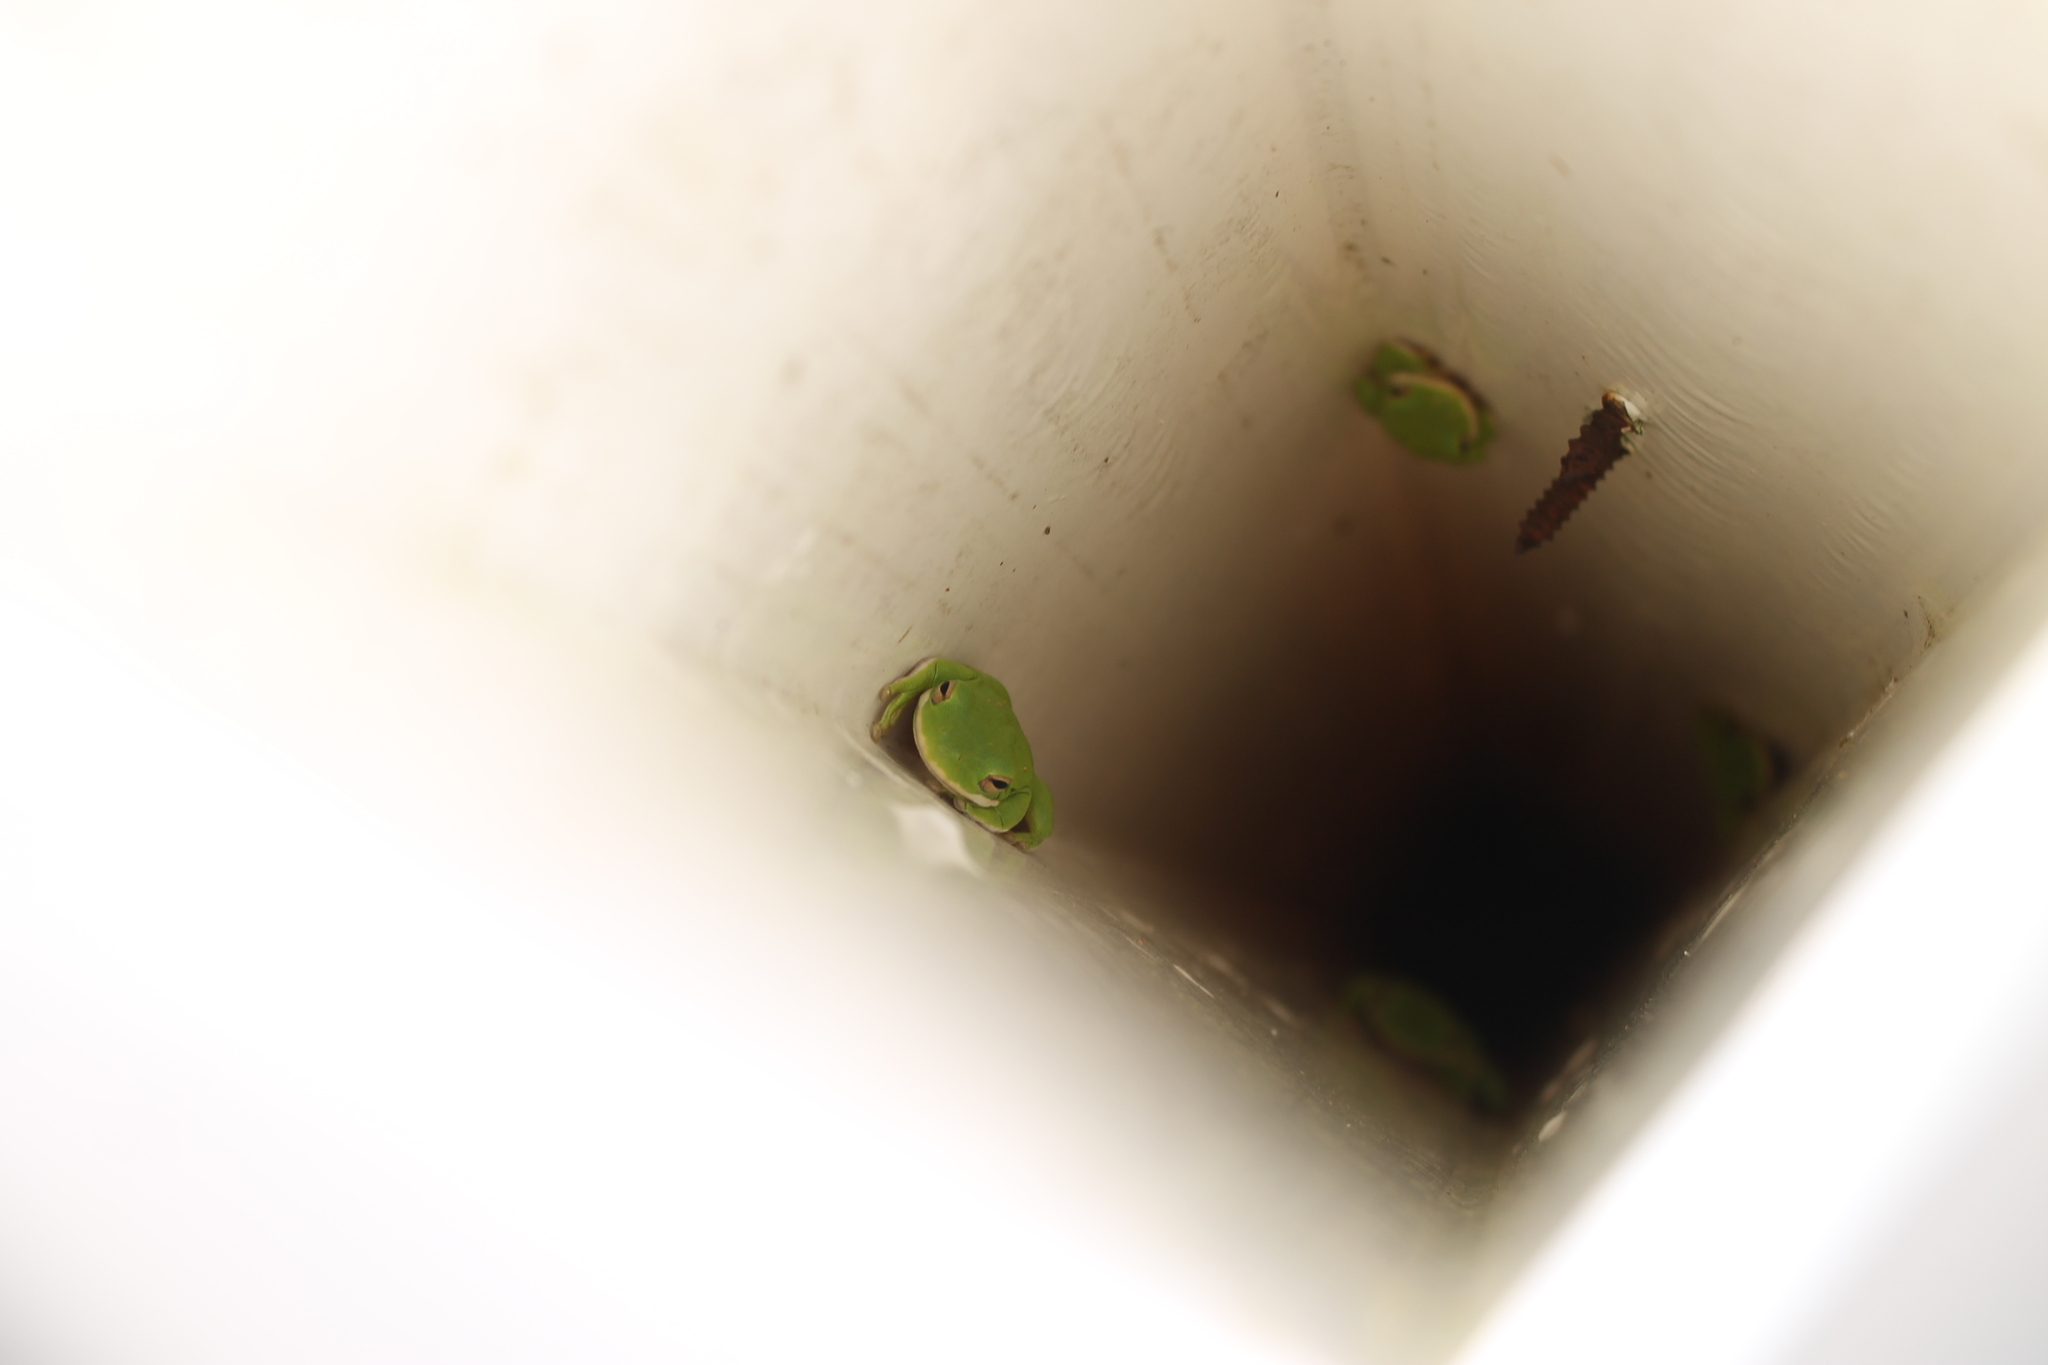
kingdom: Animalia
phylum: Chordata
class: Amphibia
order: Anura
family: Hylidae
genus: Dryophytes
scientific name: Dryophytes cinereus
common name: Green treefrog
